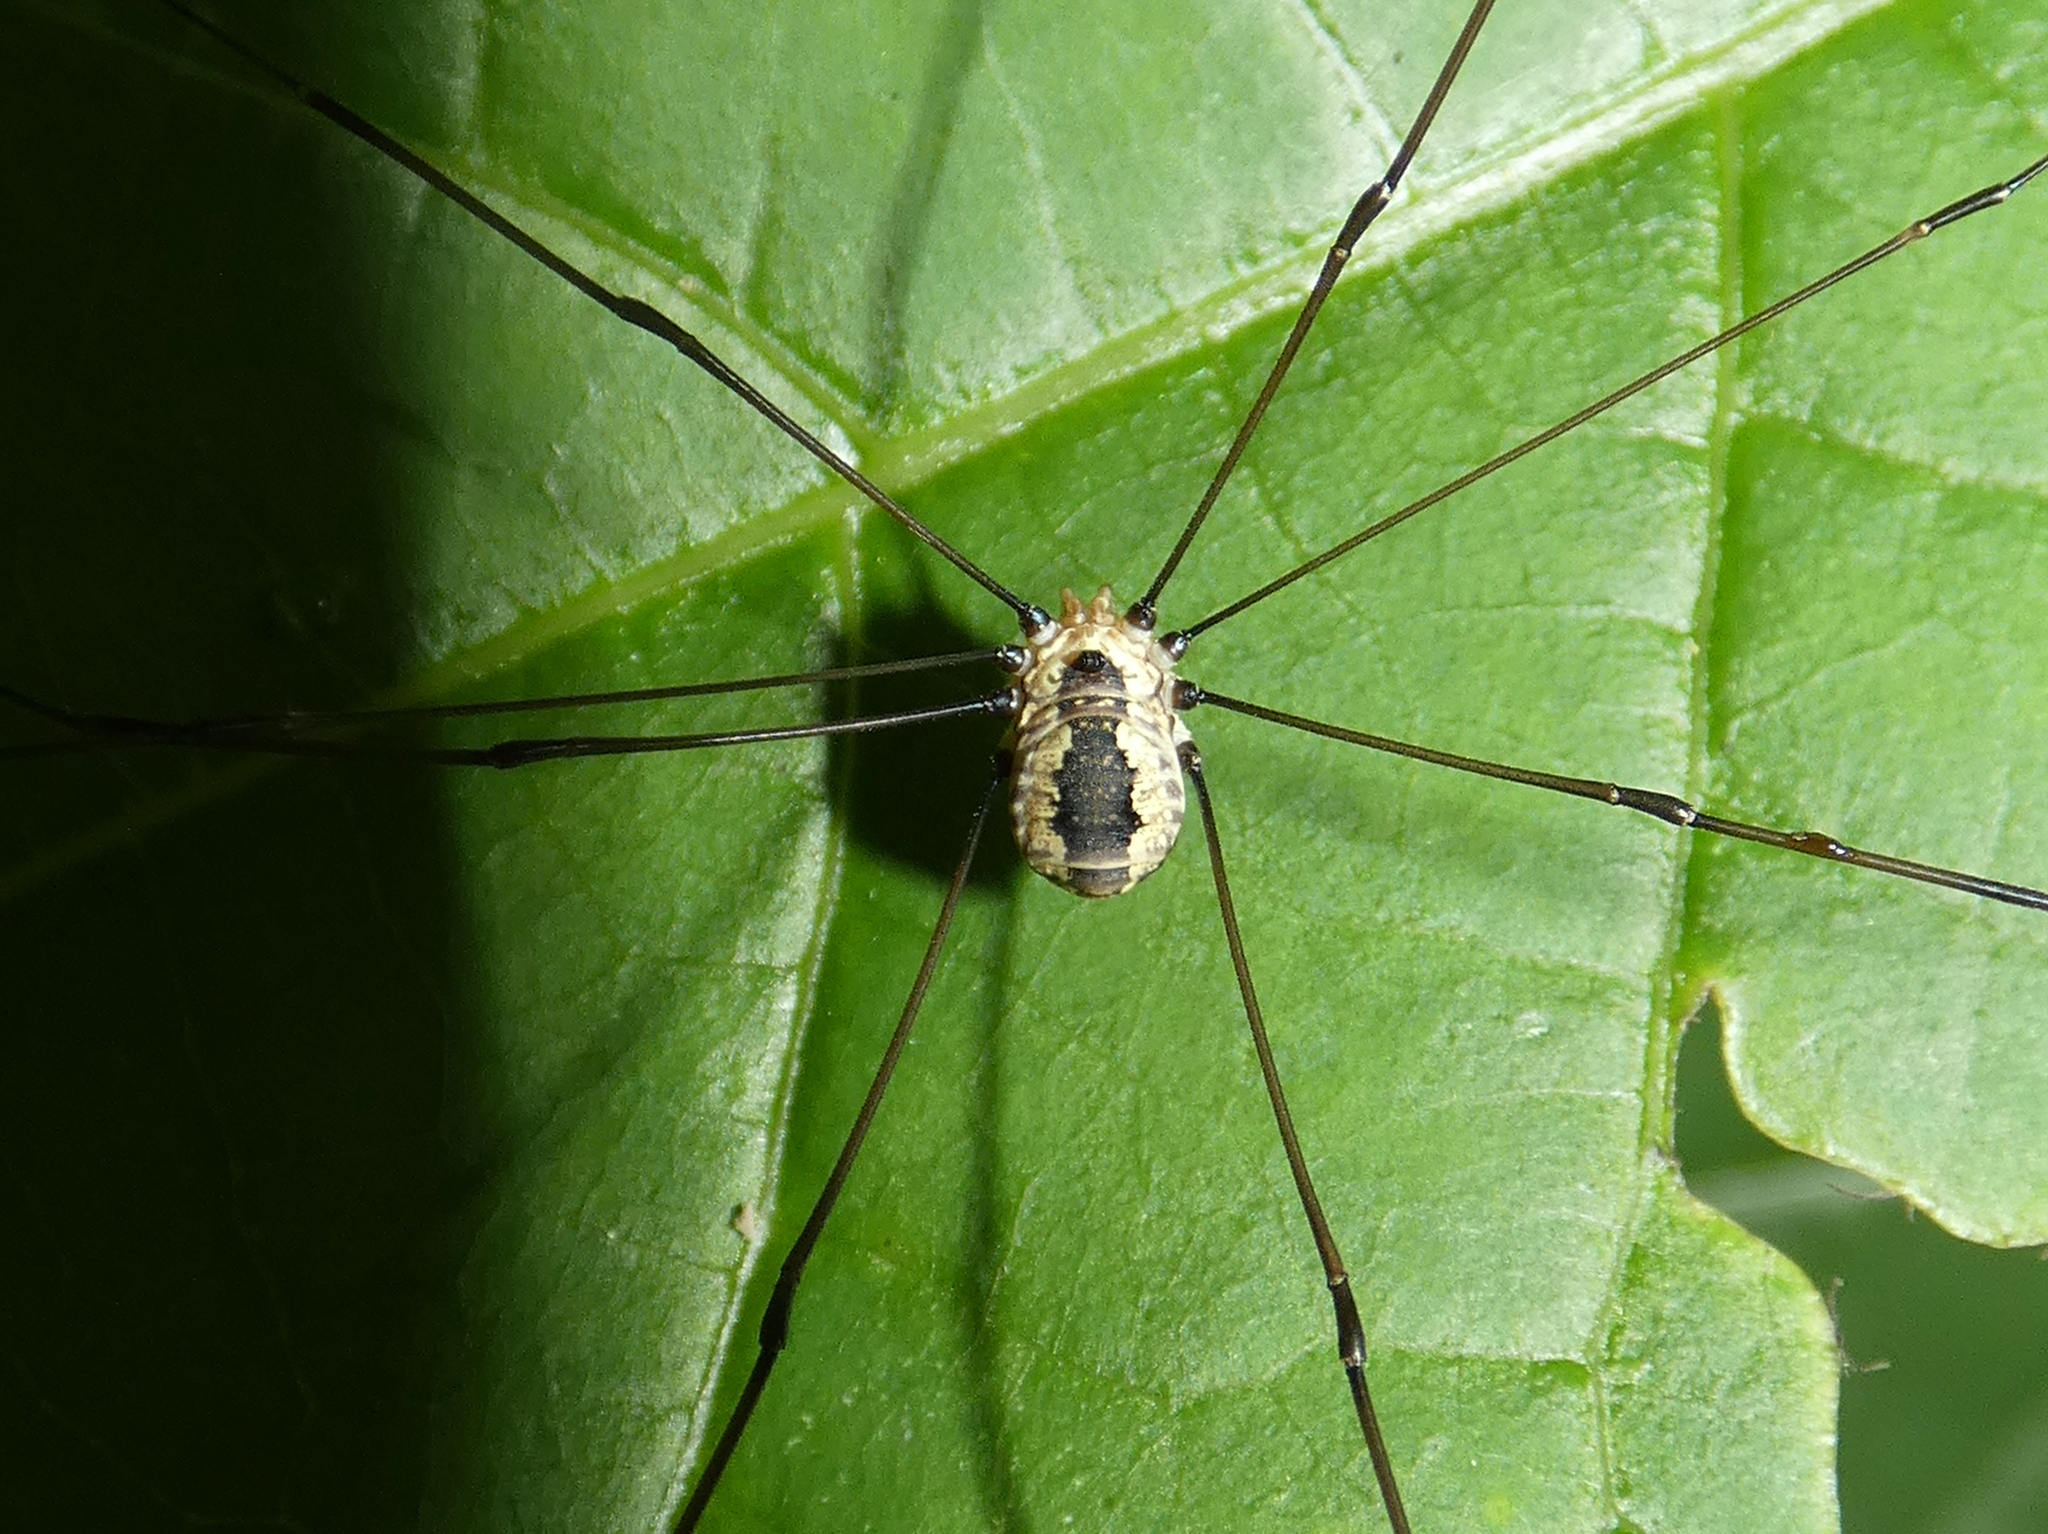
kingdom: Animalia
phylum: Arthropoda
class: Arachnida
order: Opiliones
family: Sclerosomatidae
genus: Leiobunum
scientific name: Leiobunum aldrichi
